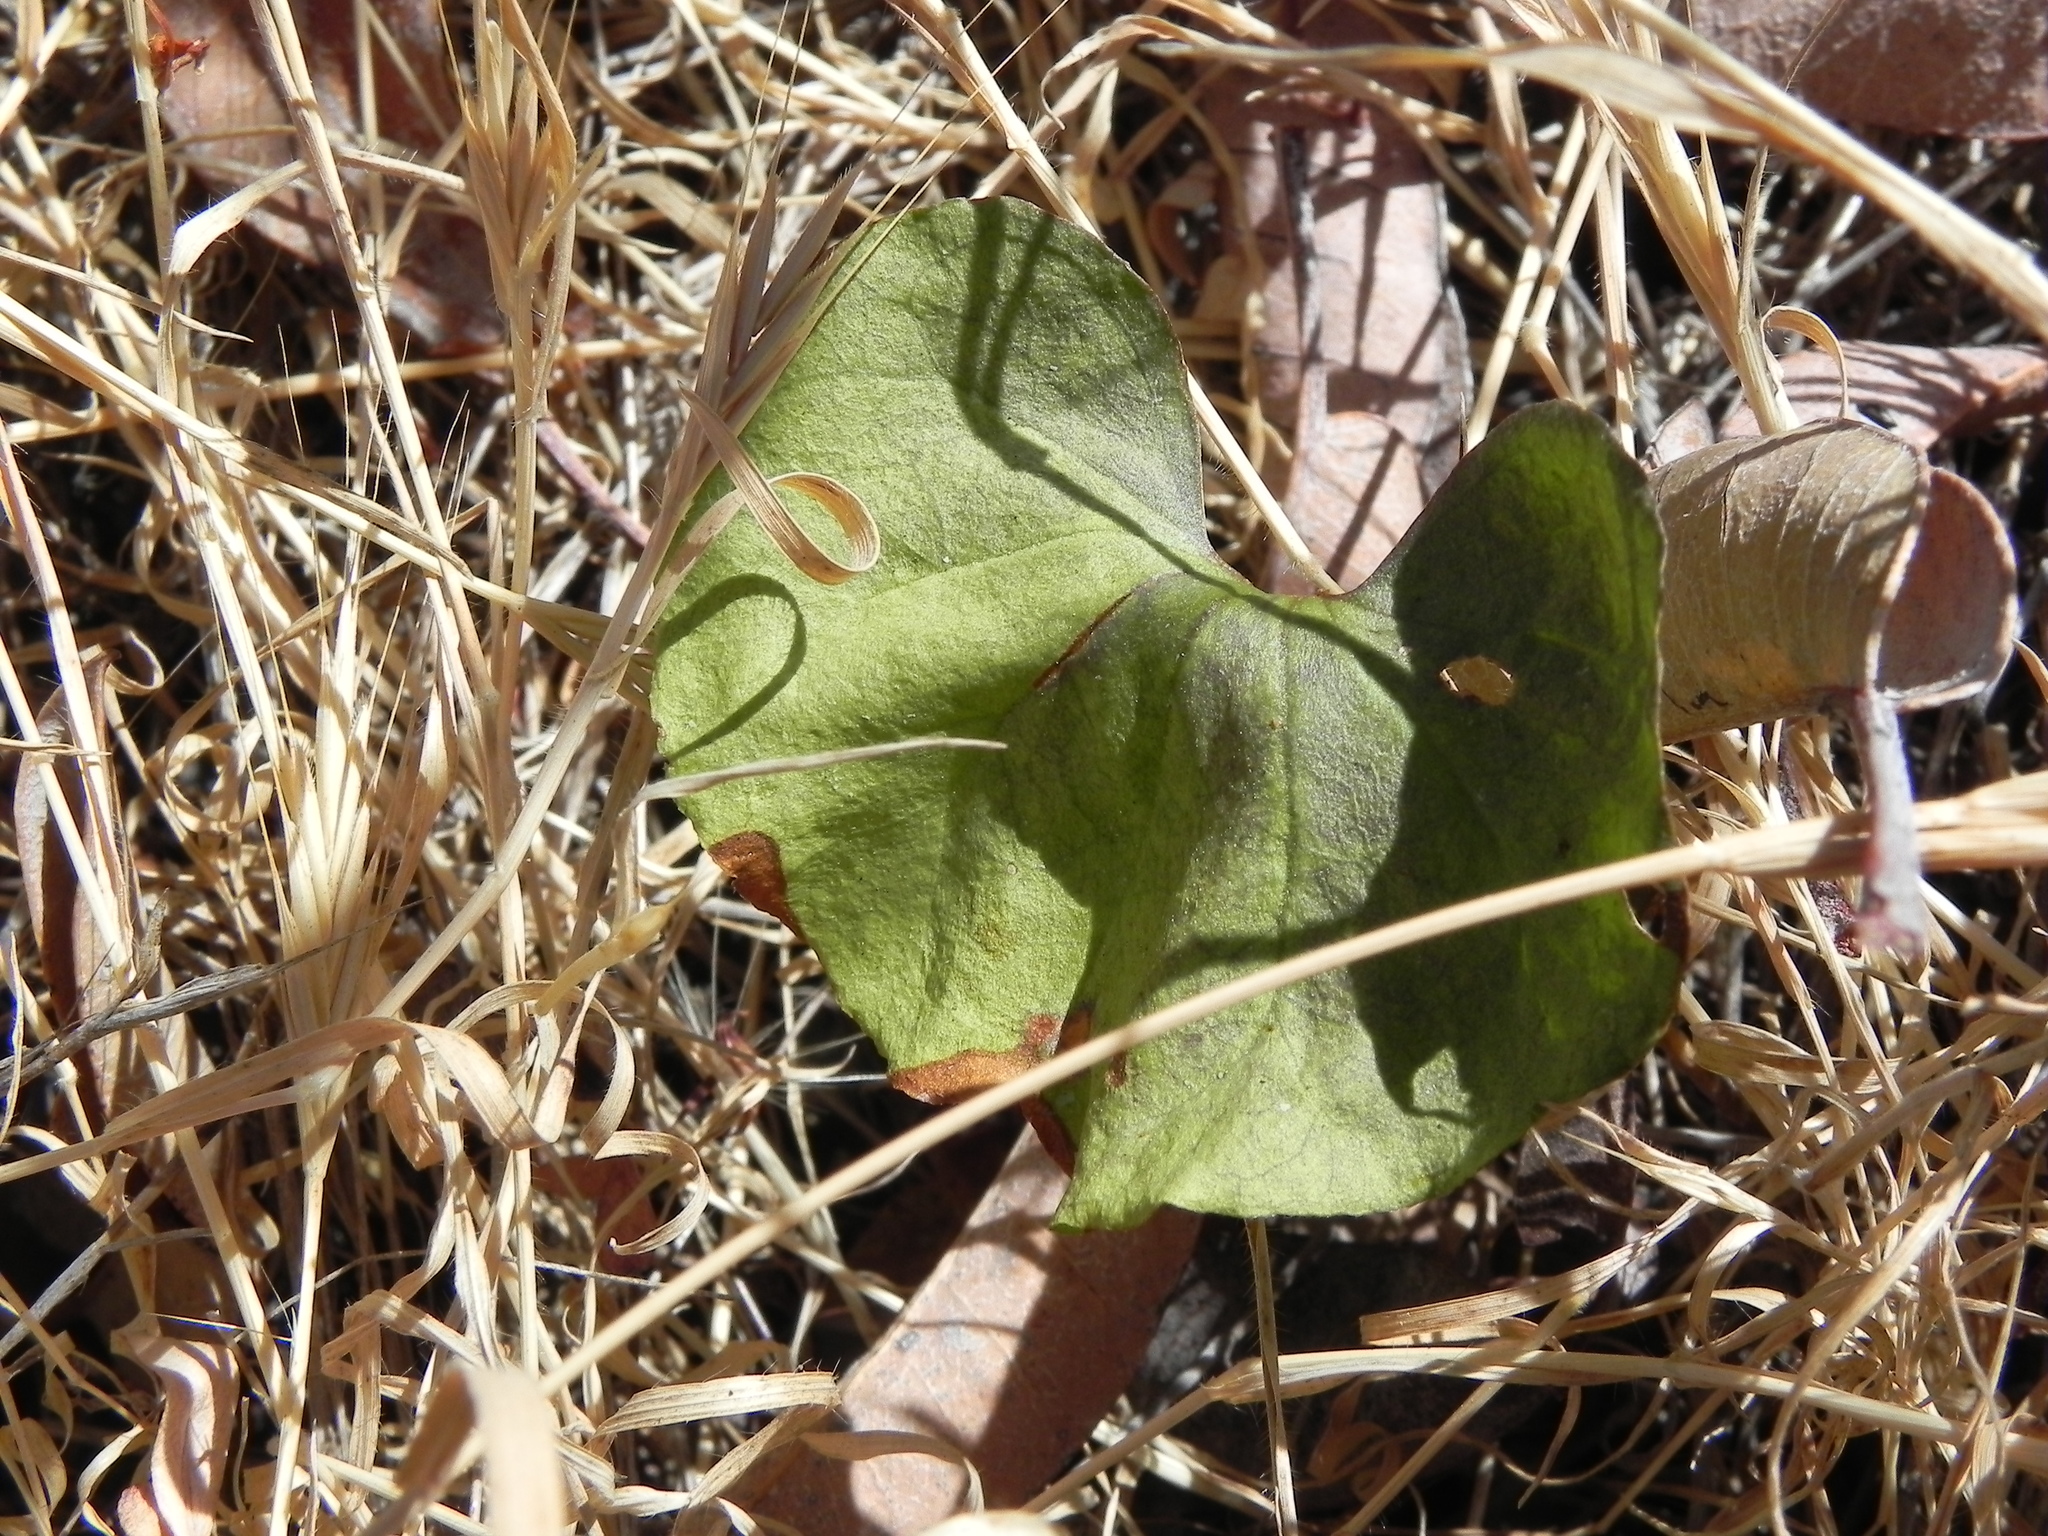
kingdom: Plantae
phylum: Tracheophyta
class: Magnoliopsida
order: Solanales
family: Convolvulaceae
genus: Dichondra
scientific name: Dichondra occidentalis
